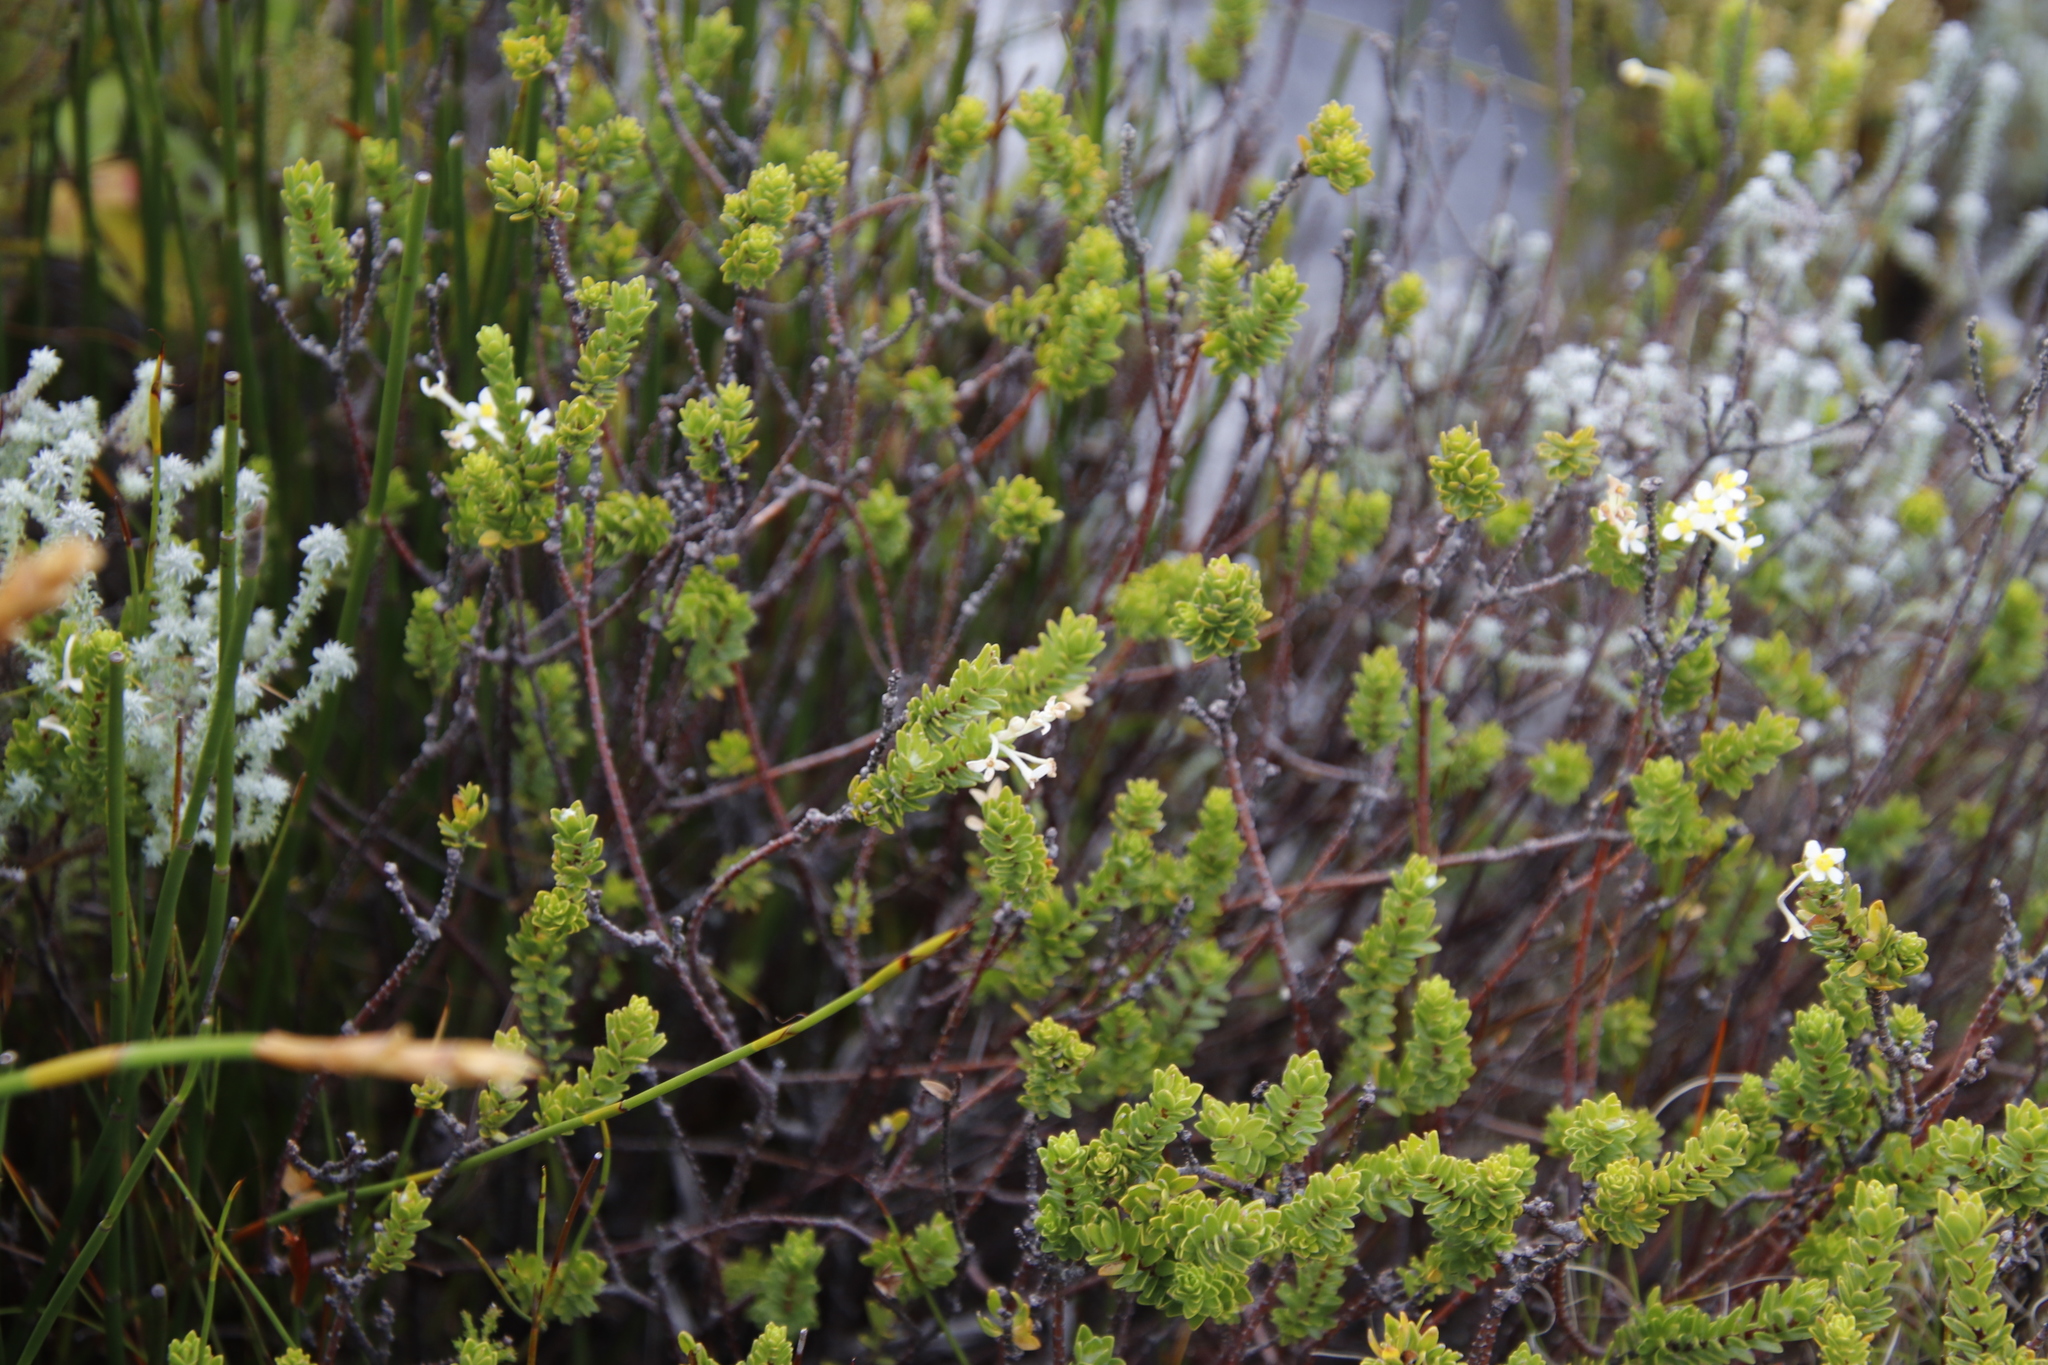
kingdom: Plantae
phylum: Tracheophyta
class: Magnoliopsida
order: Malvales
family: Thymelaeaceae
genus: Gnidia
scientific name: Gnidia tomentosa
